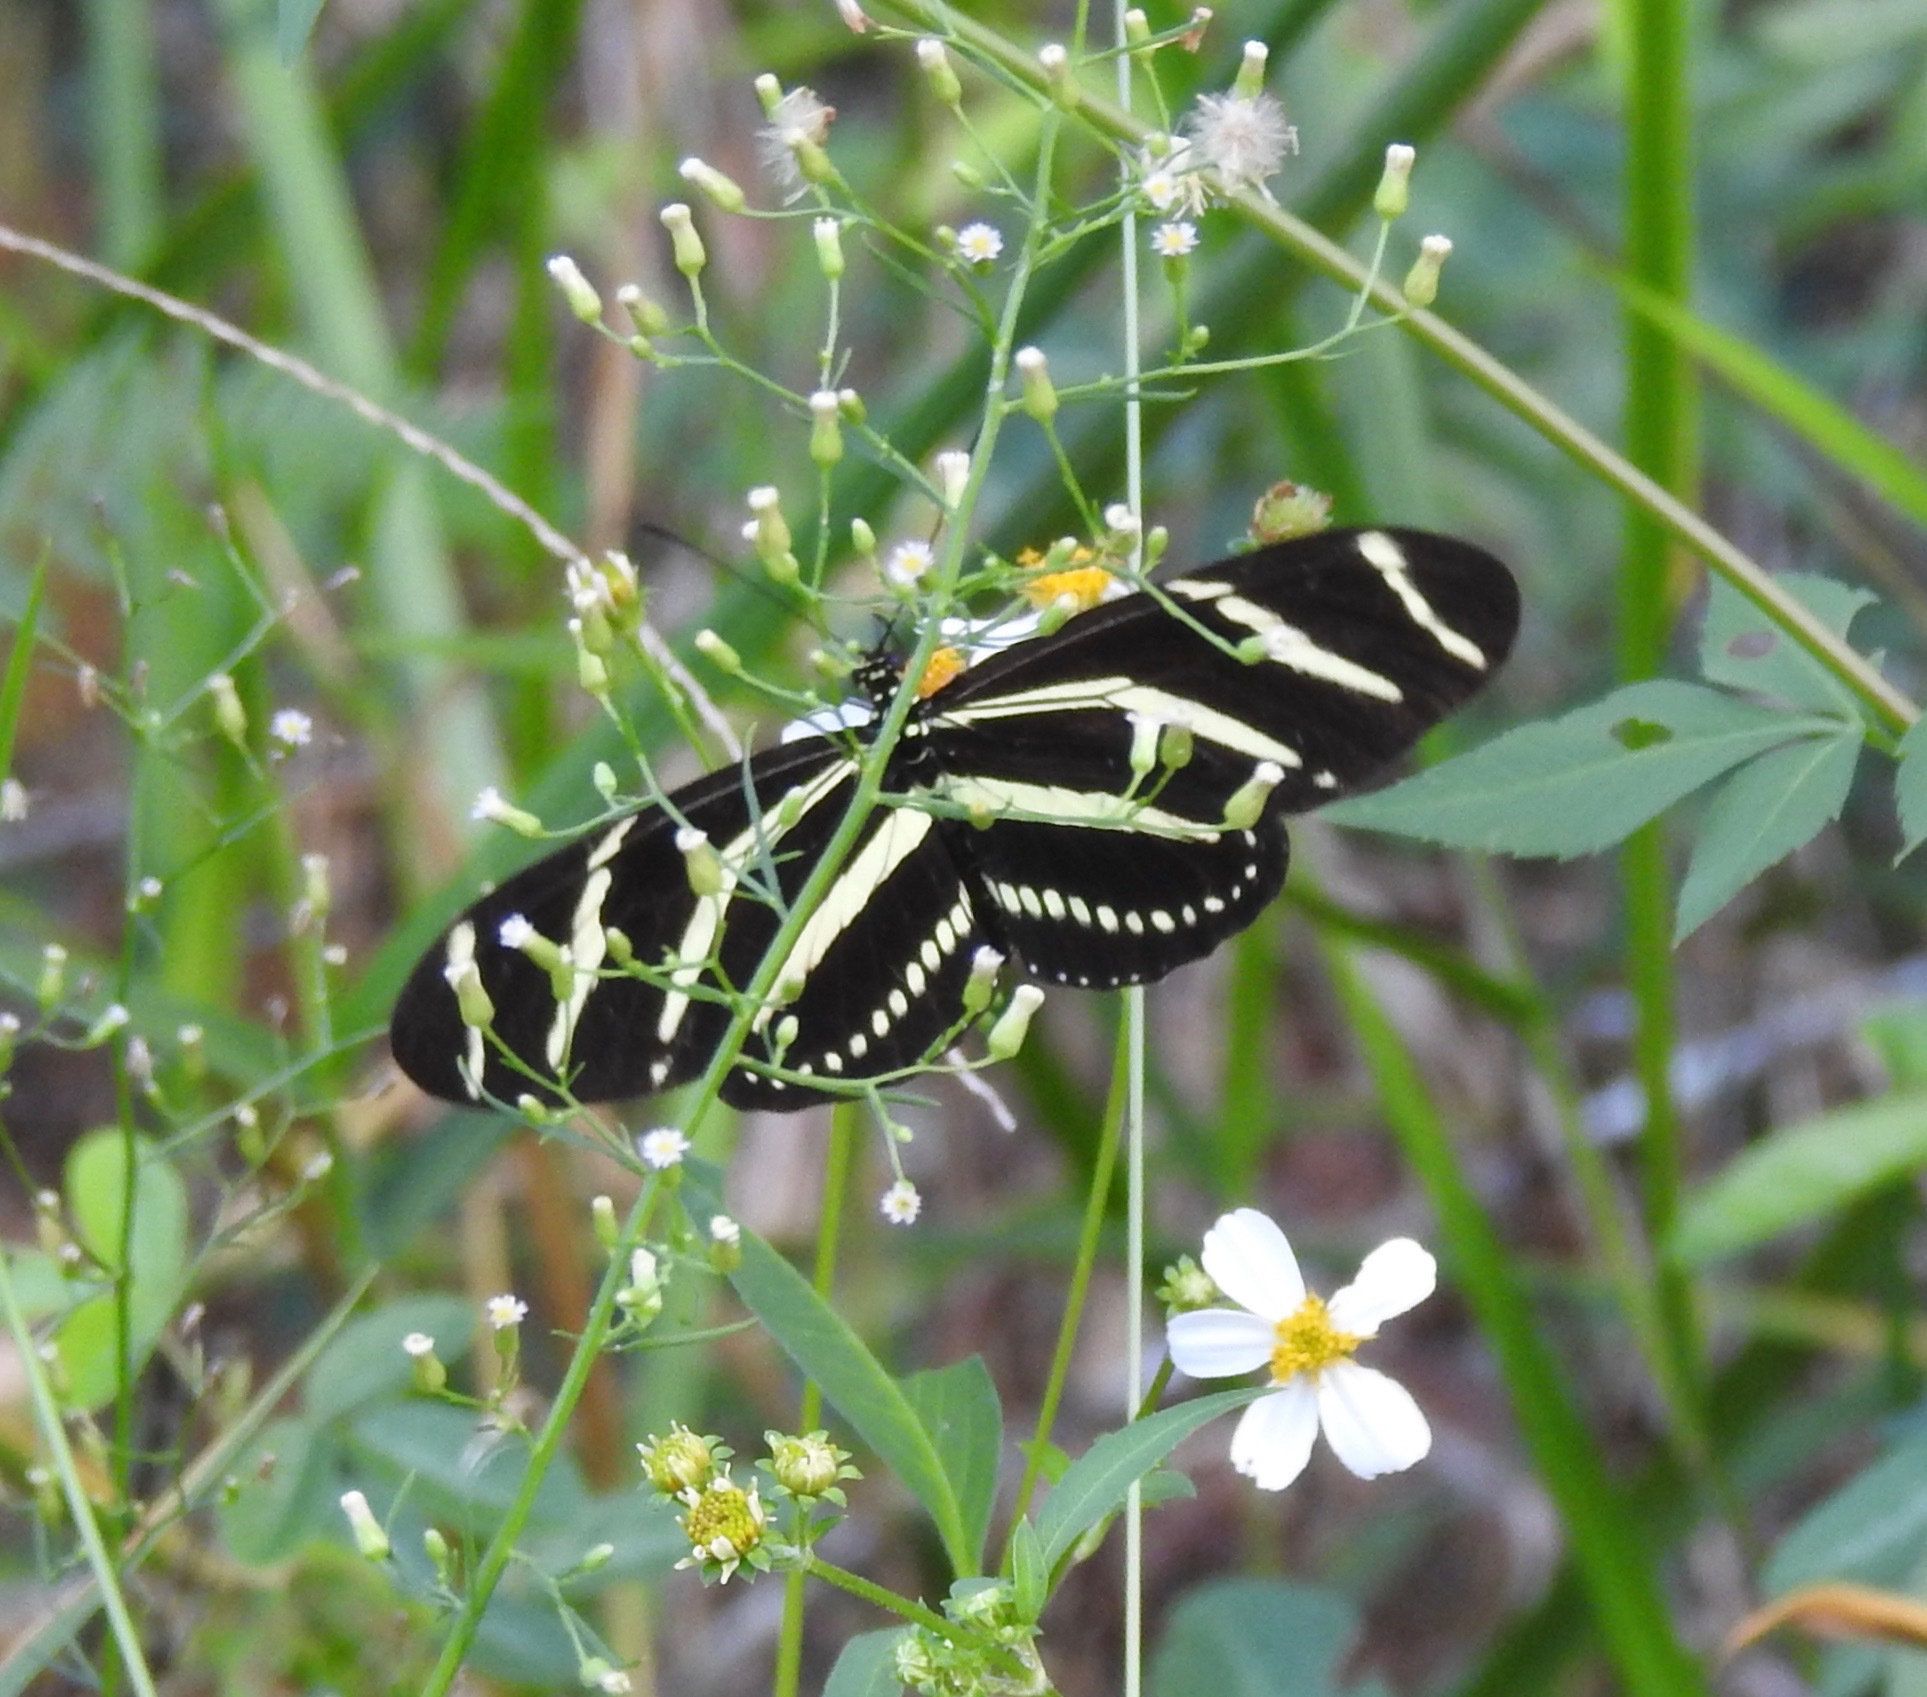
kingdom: Animalia
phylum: Arthropoda
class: Insecta
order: Lepidoptera
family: Nymphalidae
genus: Heliconius
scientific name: Heliconius charithonia
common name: Zebra long wing
